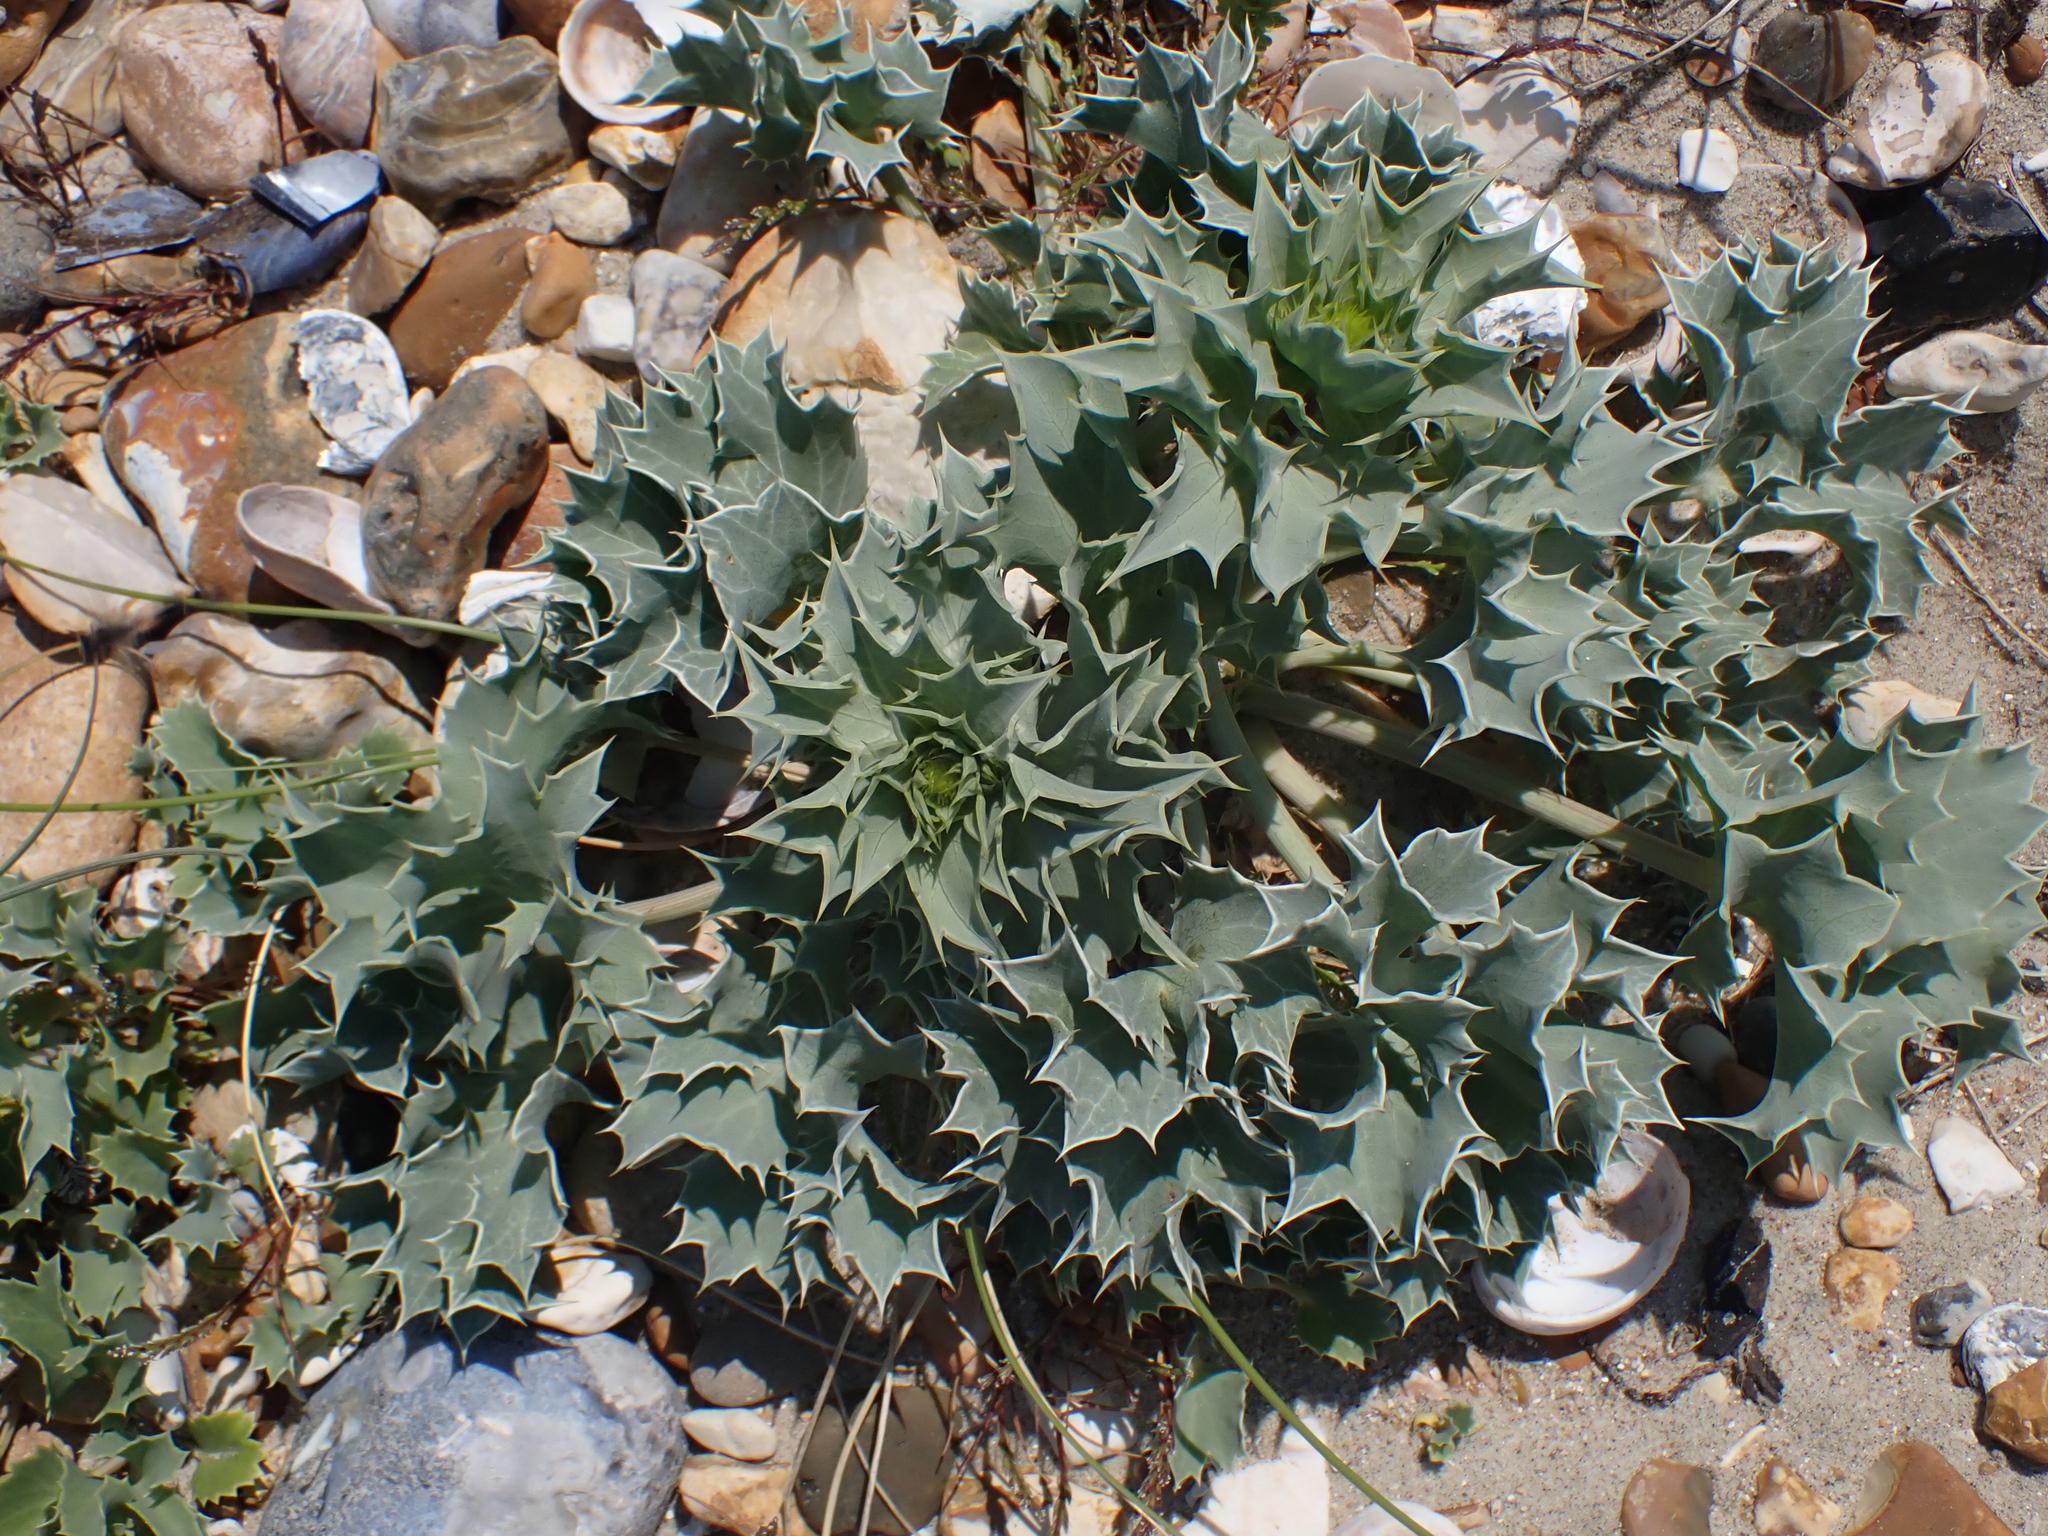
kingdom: Plantae
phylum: Tracheophyta
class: Magnoliopsida
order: Apiales
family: Apiaceae
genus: Eryngium
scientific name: Eryngium maritimum
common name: Sea-holly
